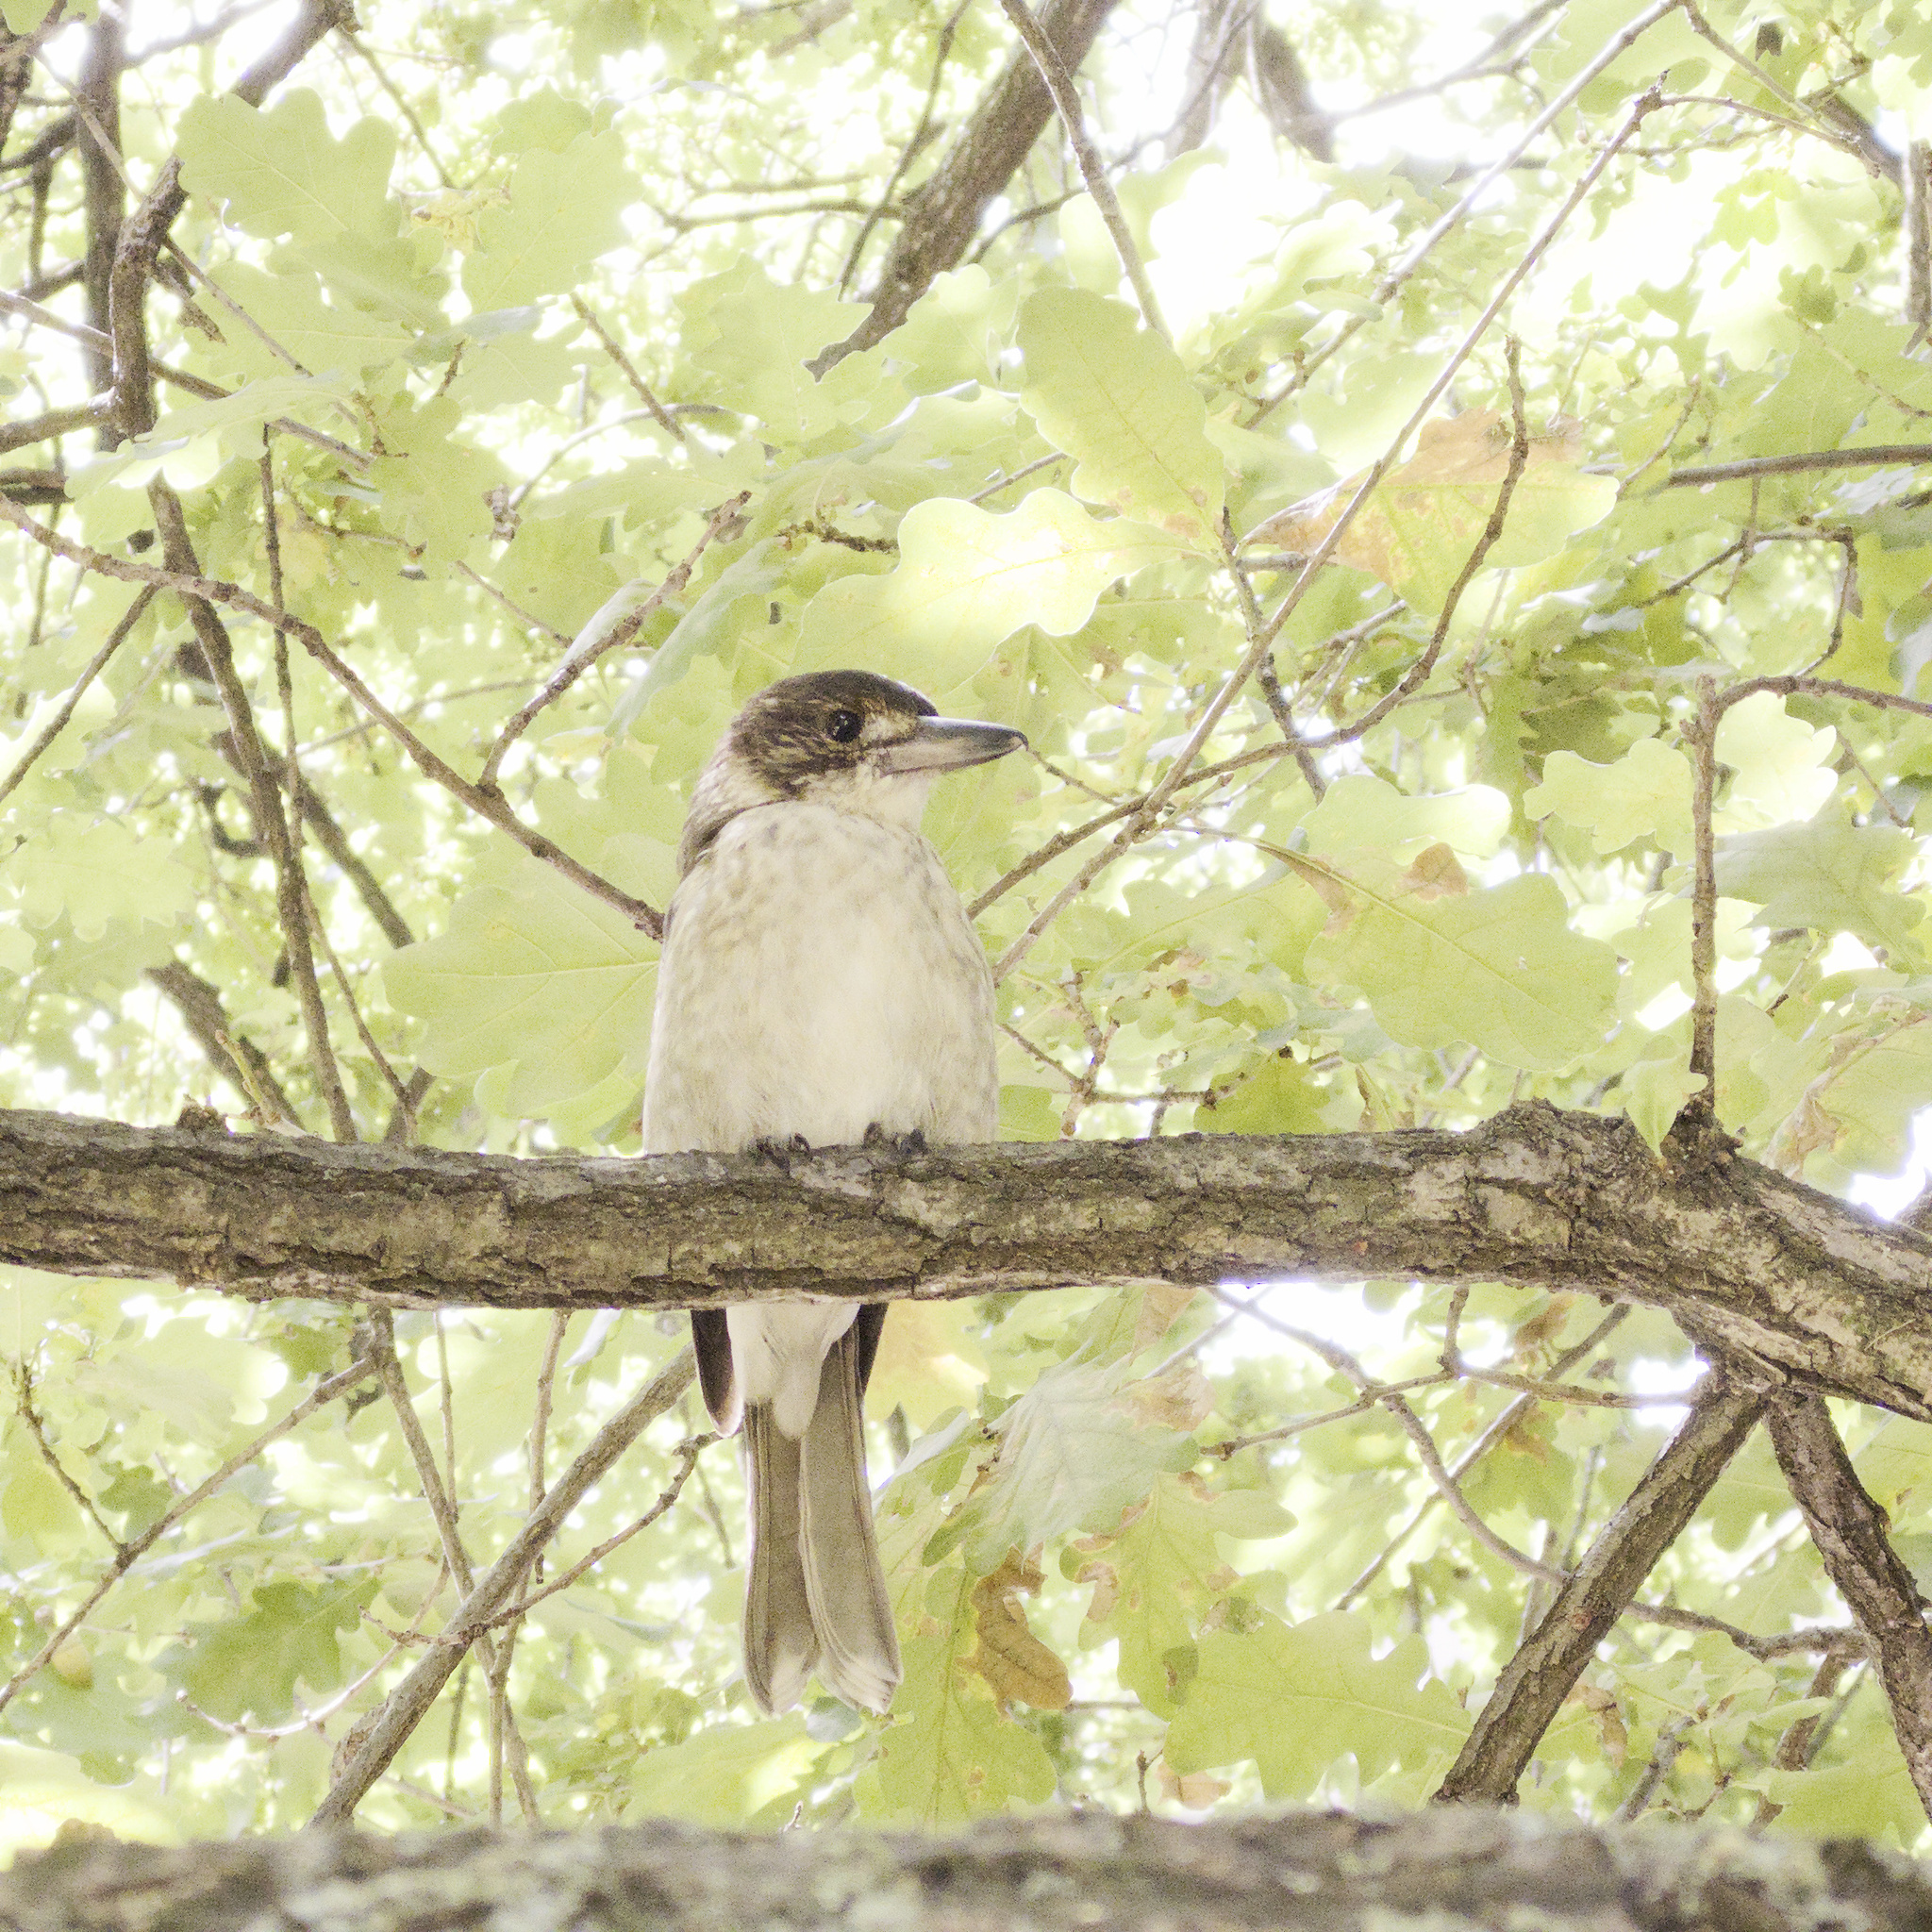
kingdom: Animalia
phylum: Chordata
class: Aves
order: Passeriformes
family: Cracticidae
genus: Cracticus
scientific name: Cracticus torquatus
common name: Grey butcherbird
